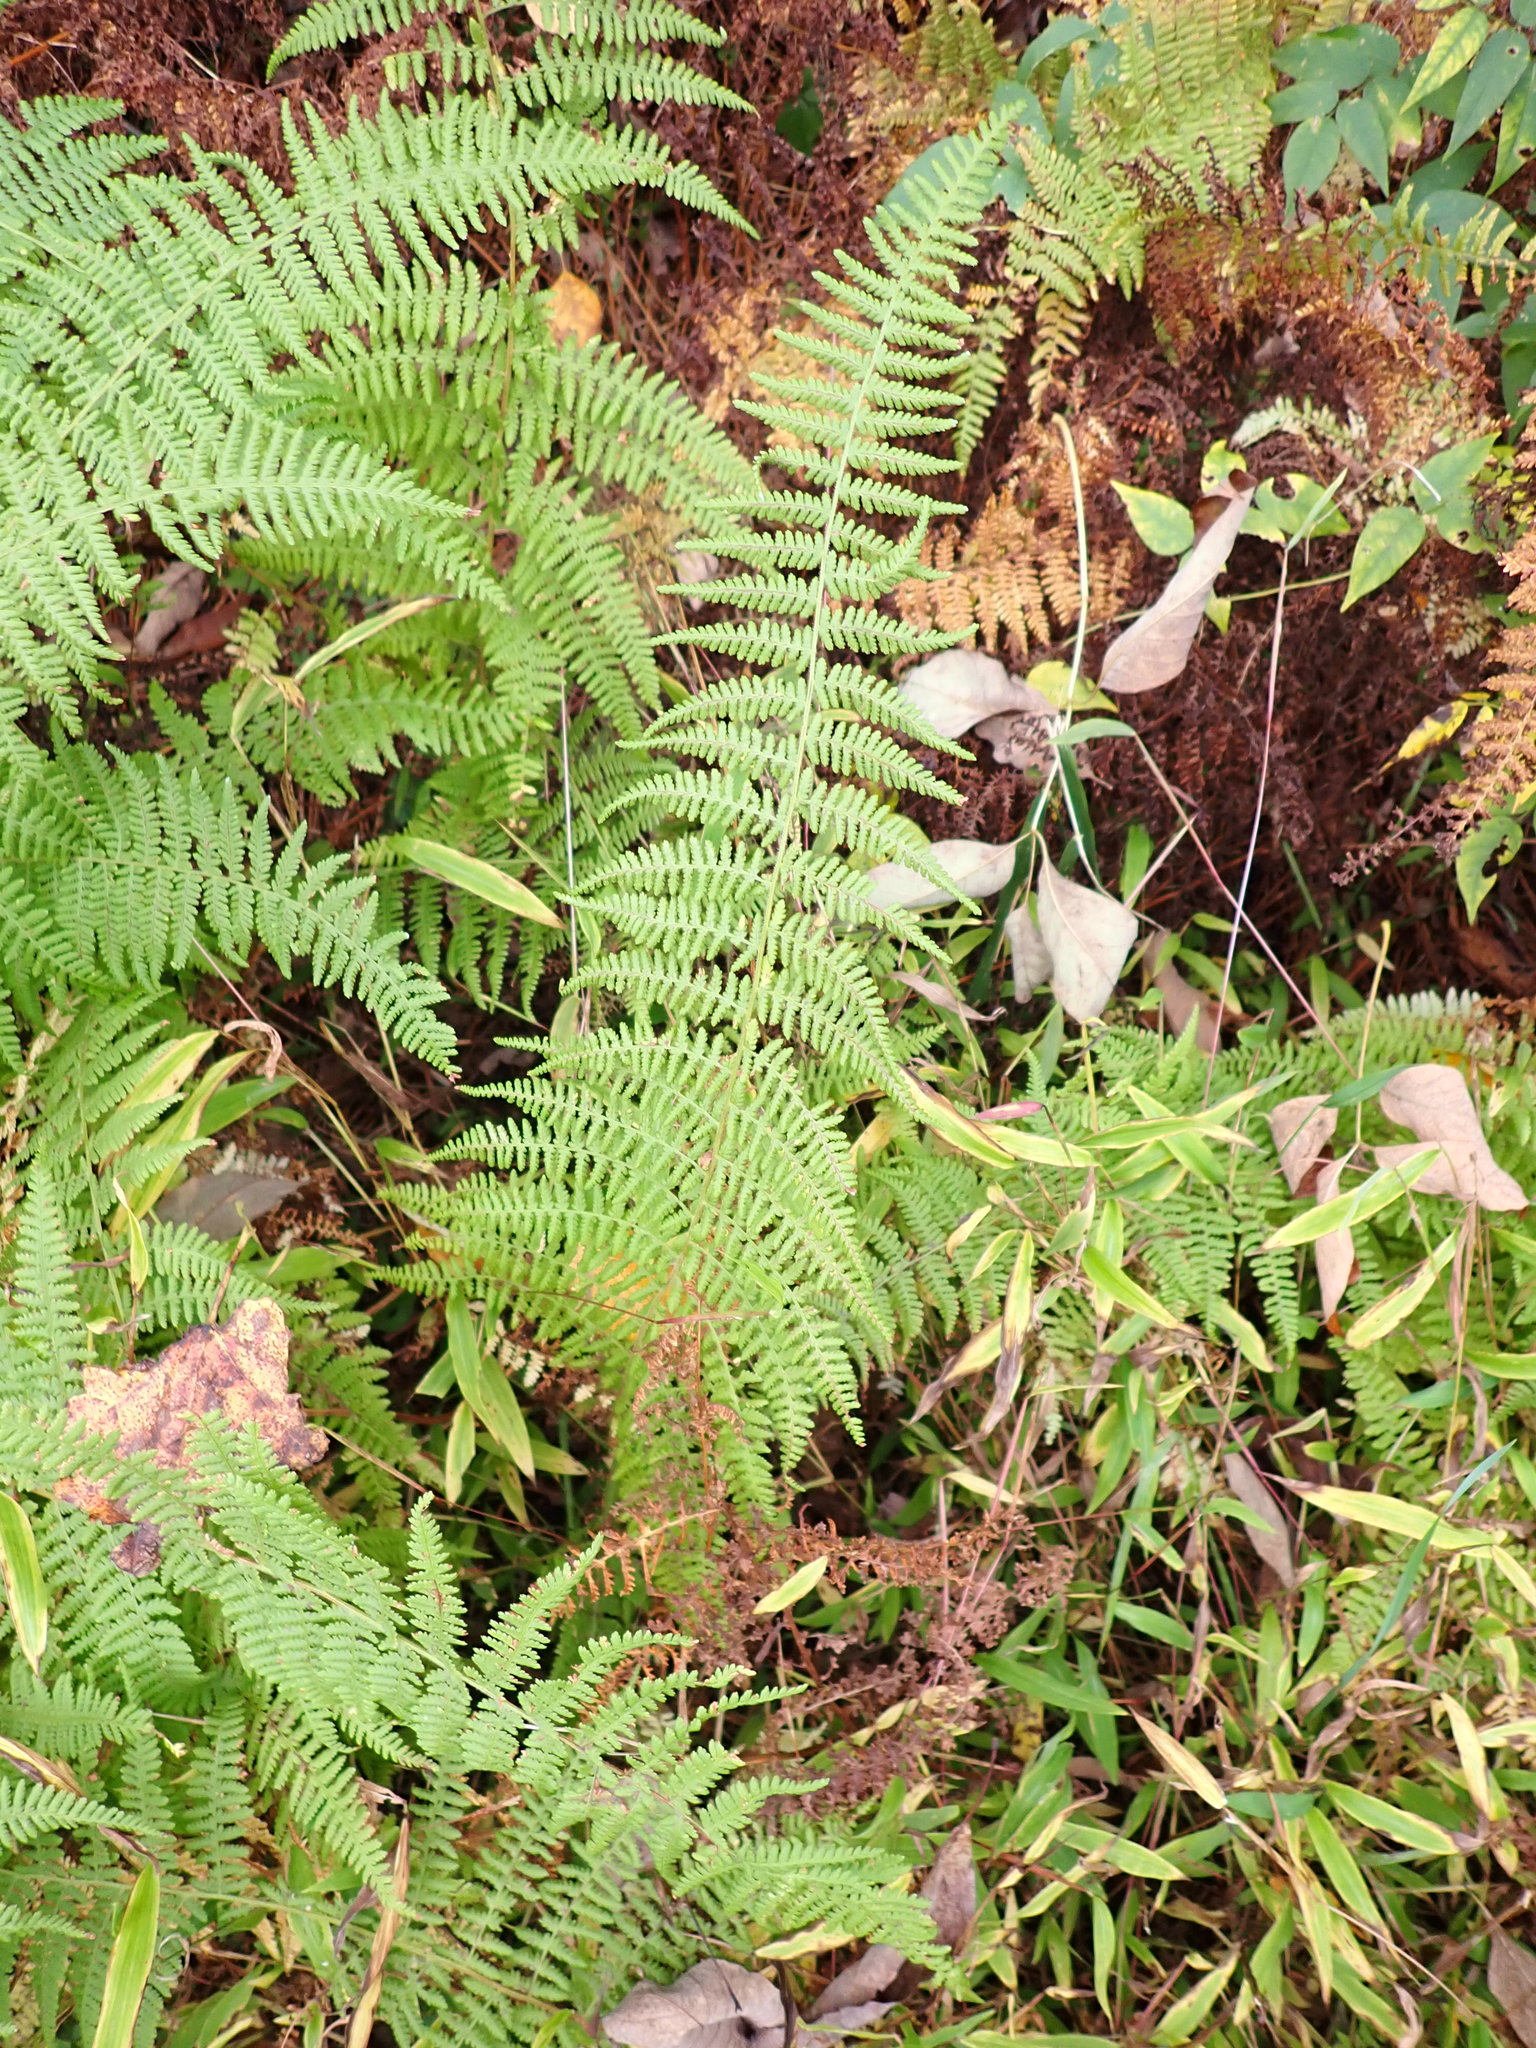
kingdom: Plantae
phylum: Tracheophyta
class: Polypodiopsida
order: Polypodiales
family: Dennstaedtiaceae
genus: Sitobolium
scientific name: Sitobolium punctilobum
